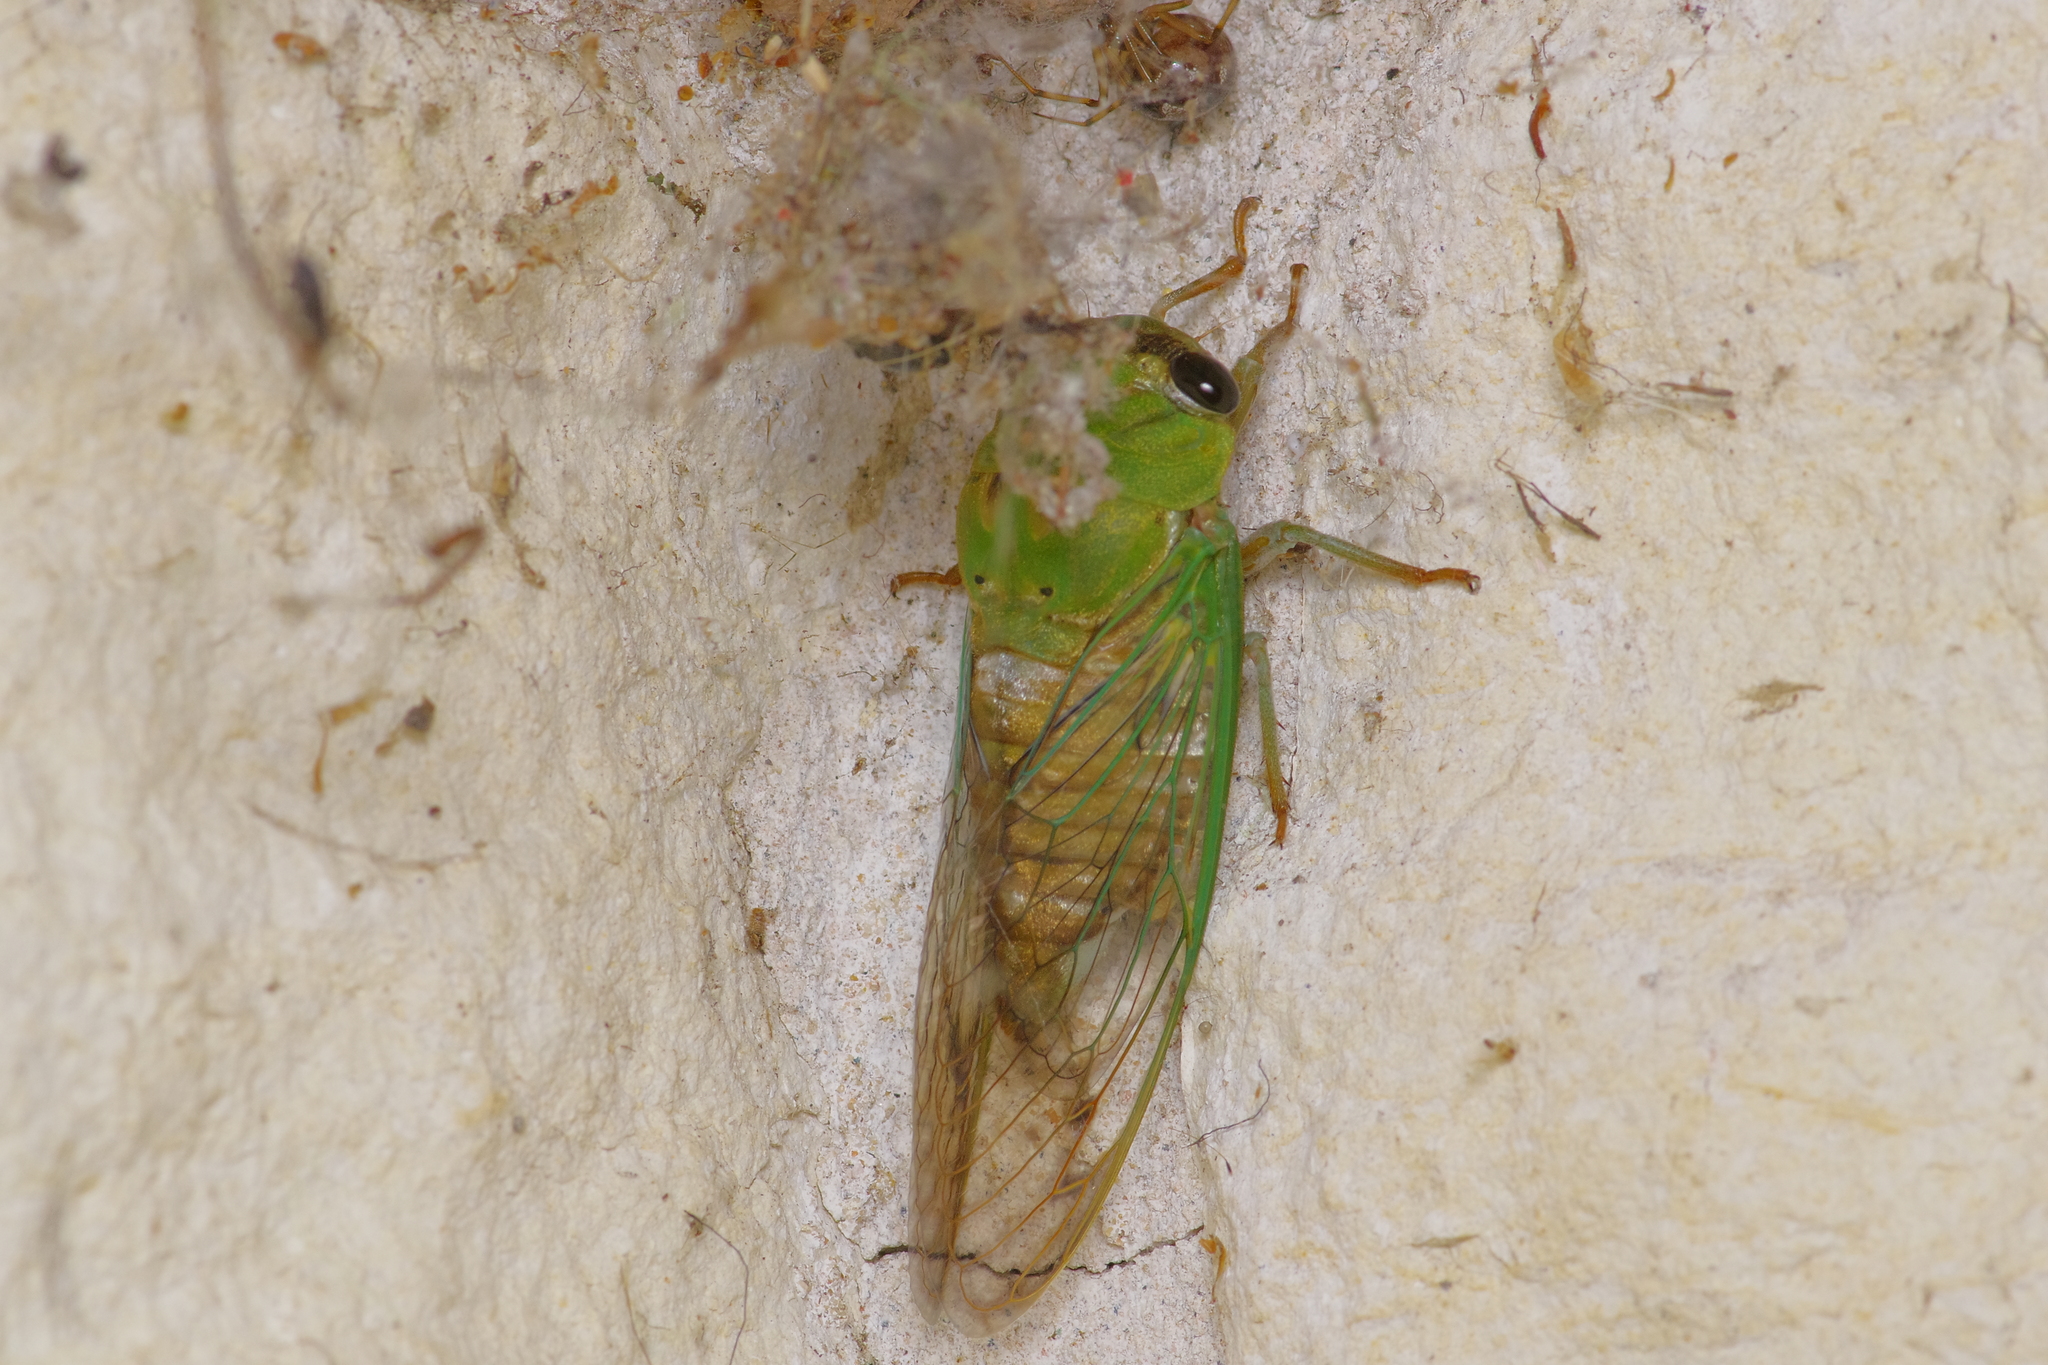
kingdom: Animalia
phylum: Arthropoda
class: Insecta
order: Hemiptera
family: Cicadidae
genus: Neotibicen
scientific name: Neotibicen superbus
